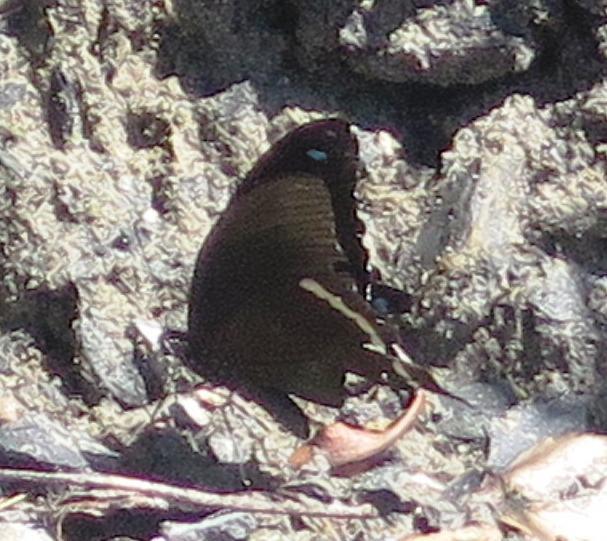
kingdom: Animalia
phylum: Arthropoda
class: Insecta
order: Lepidoptera
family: Papilionidae
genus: Papilio
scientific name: Papilio nireus
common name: Greenbanded swallowtail
